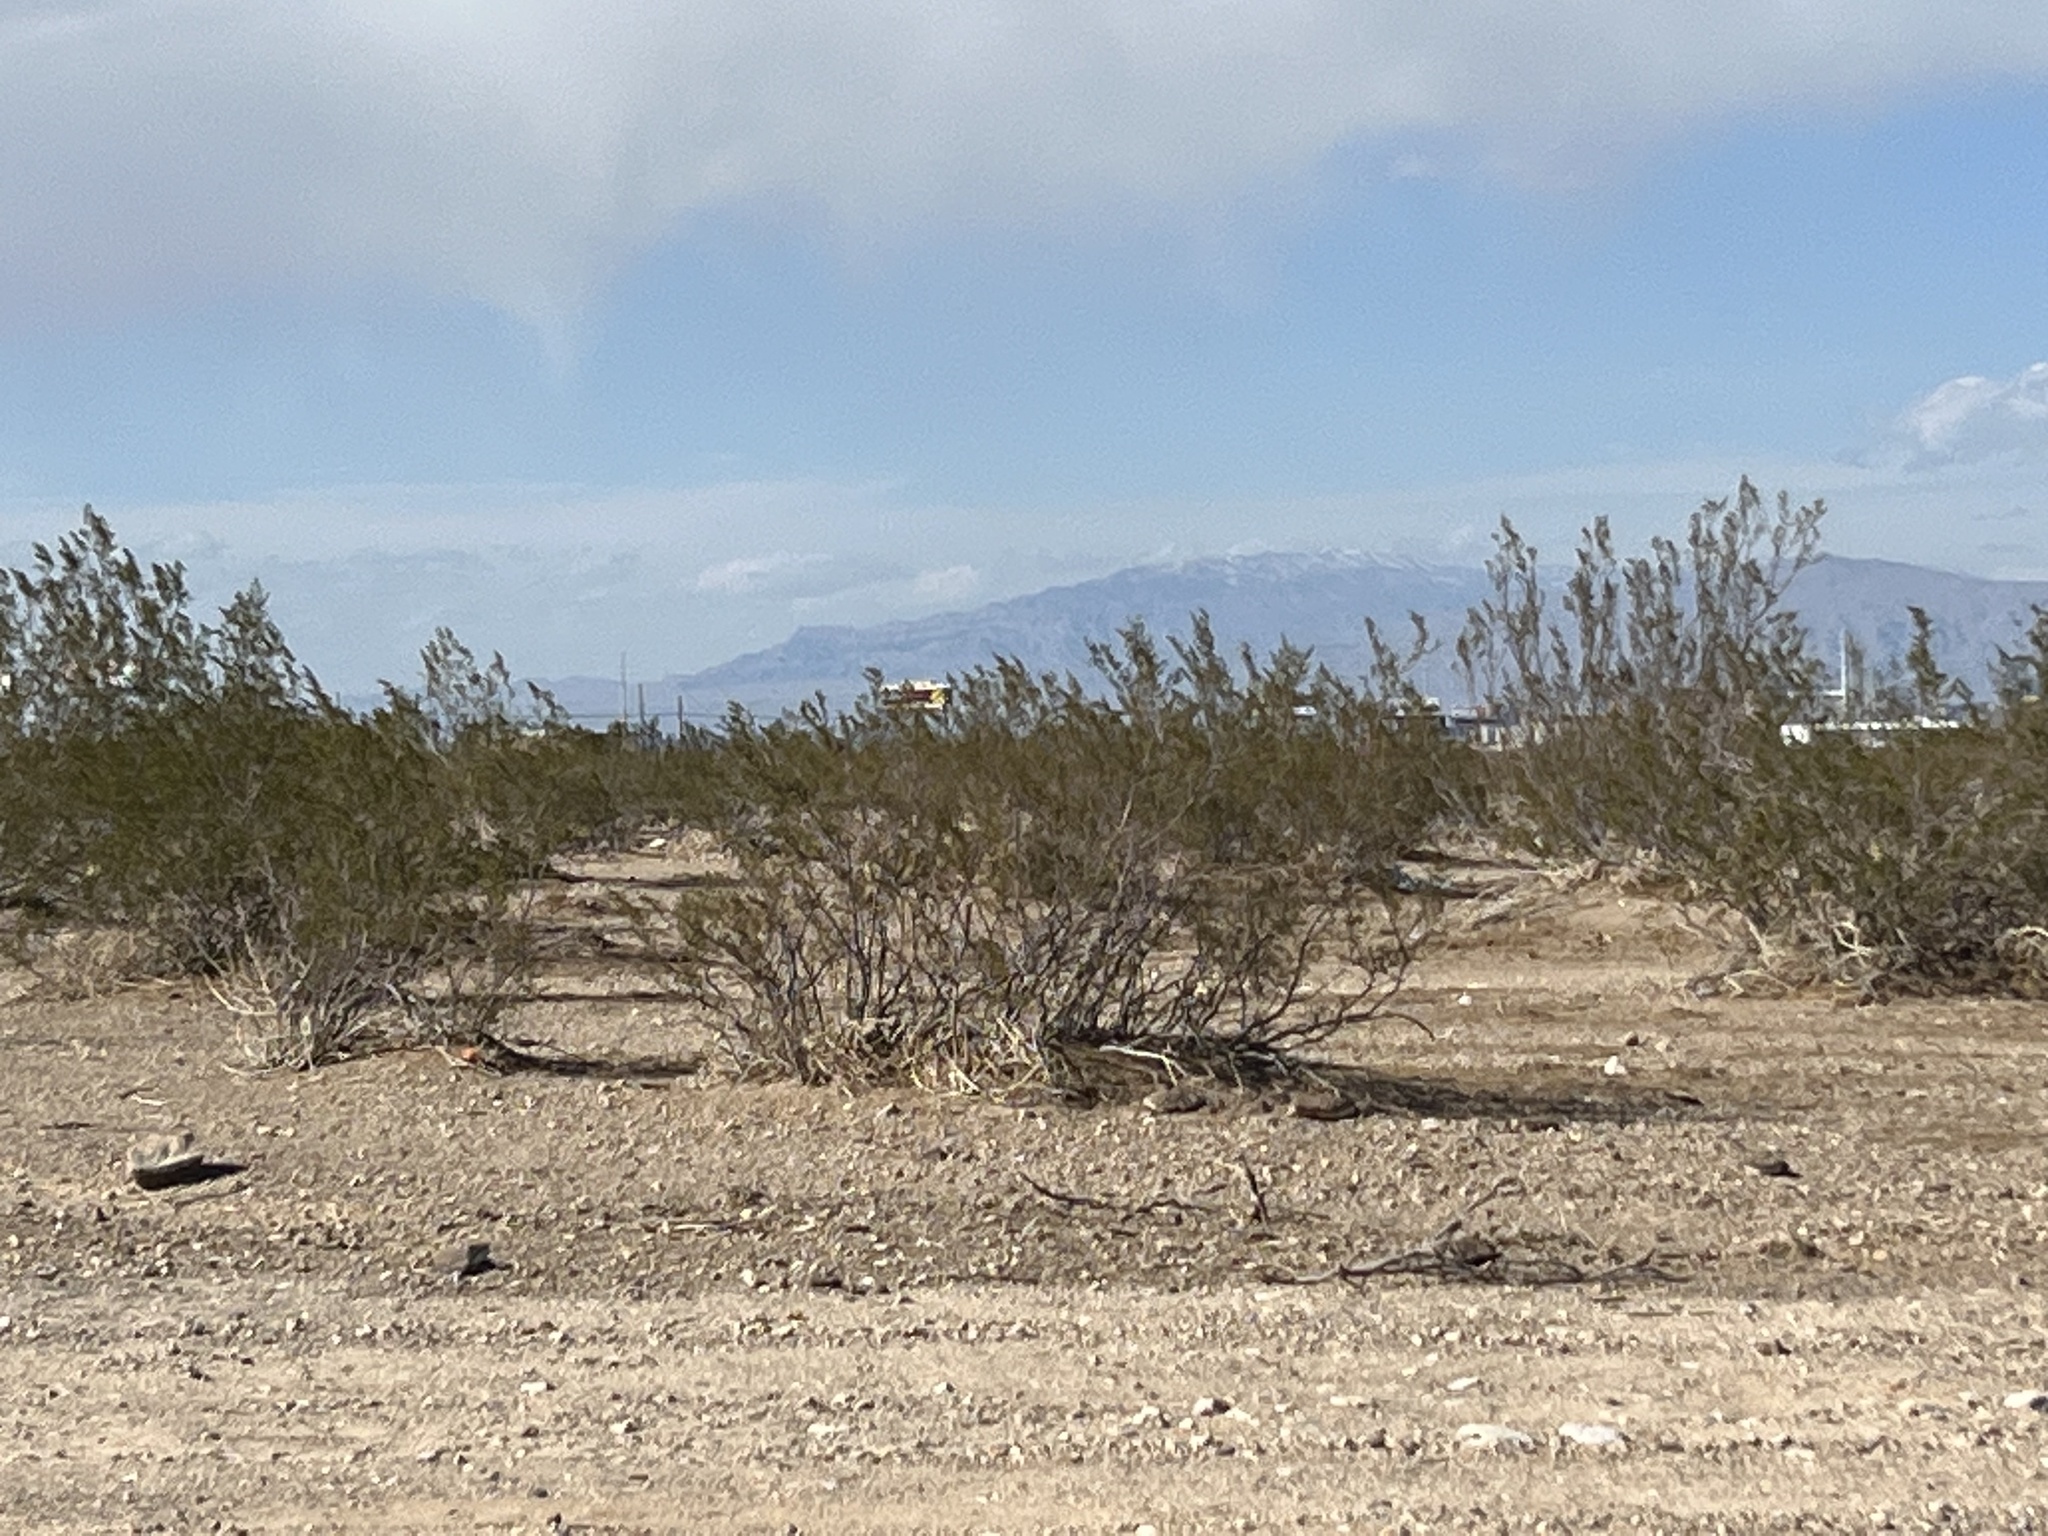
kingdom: Plantae
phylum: Tracheophyta
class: Magnoliopsida
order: Zygophyllales
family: Zygophyllaceae
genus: Larrea
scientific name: Larrea tridentata
